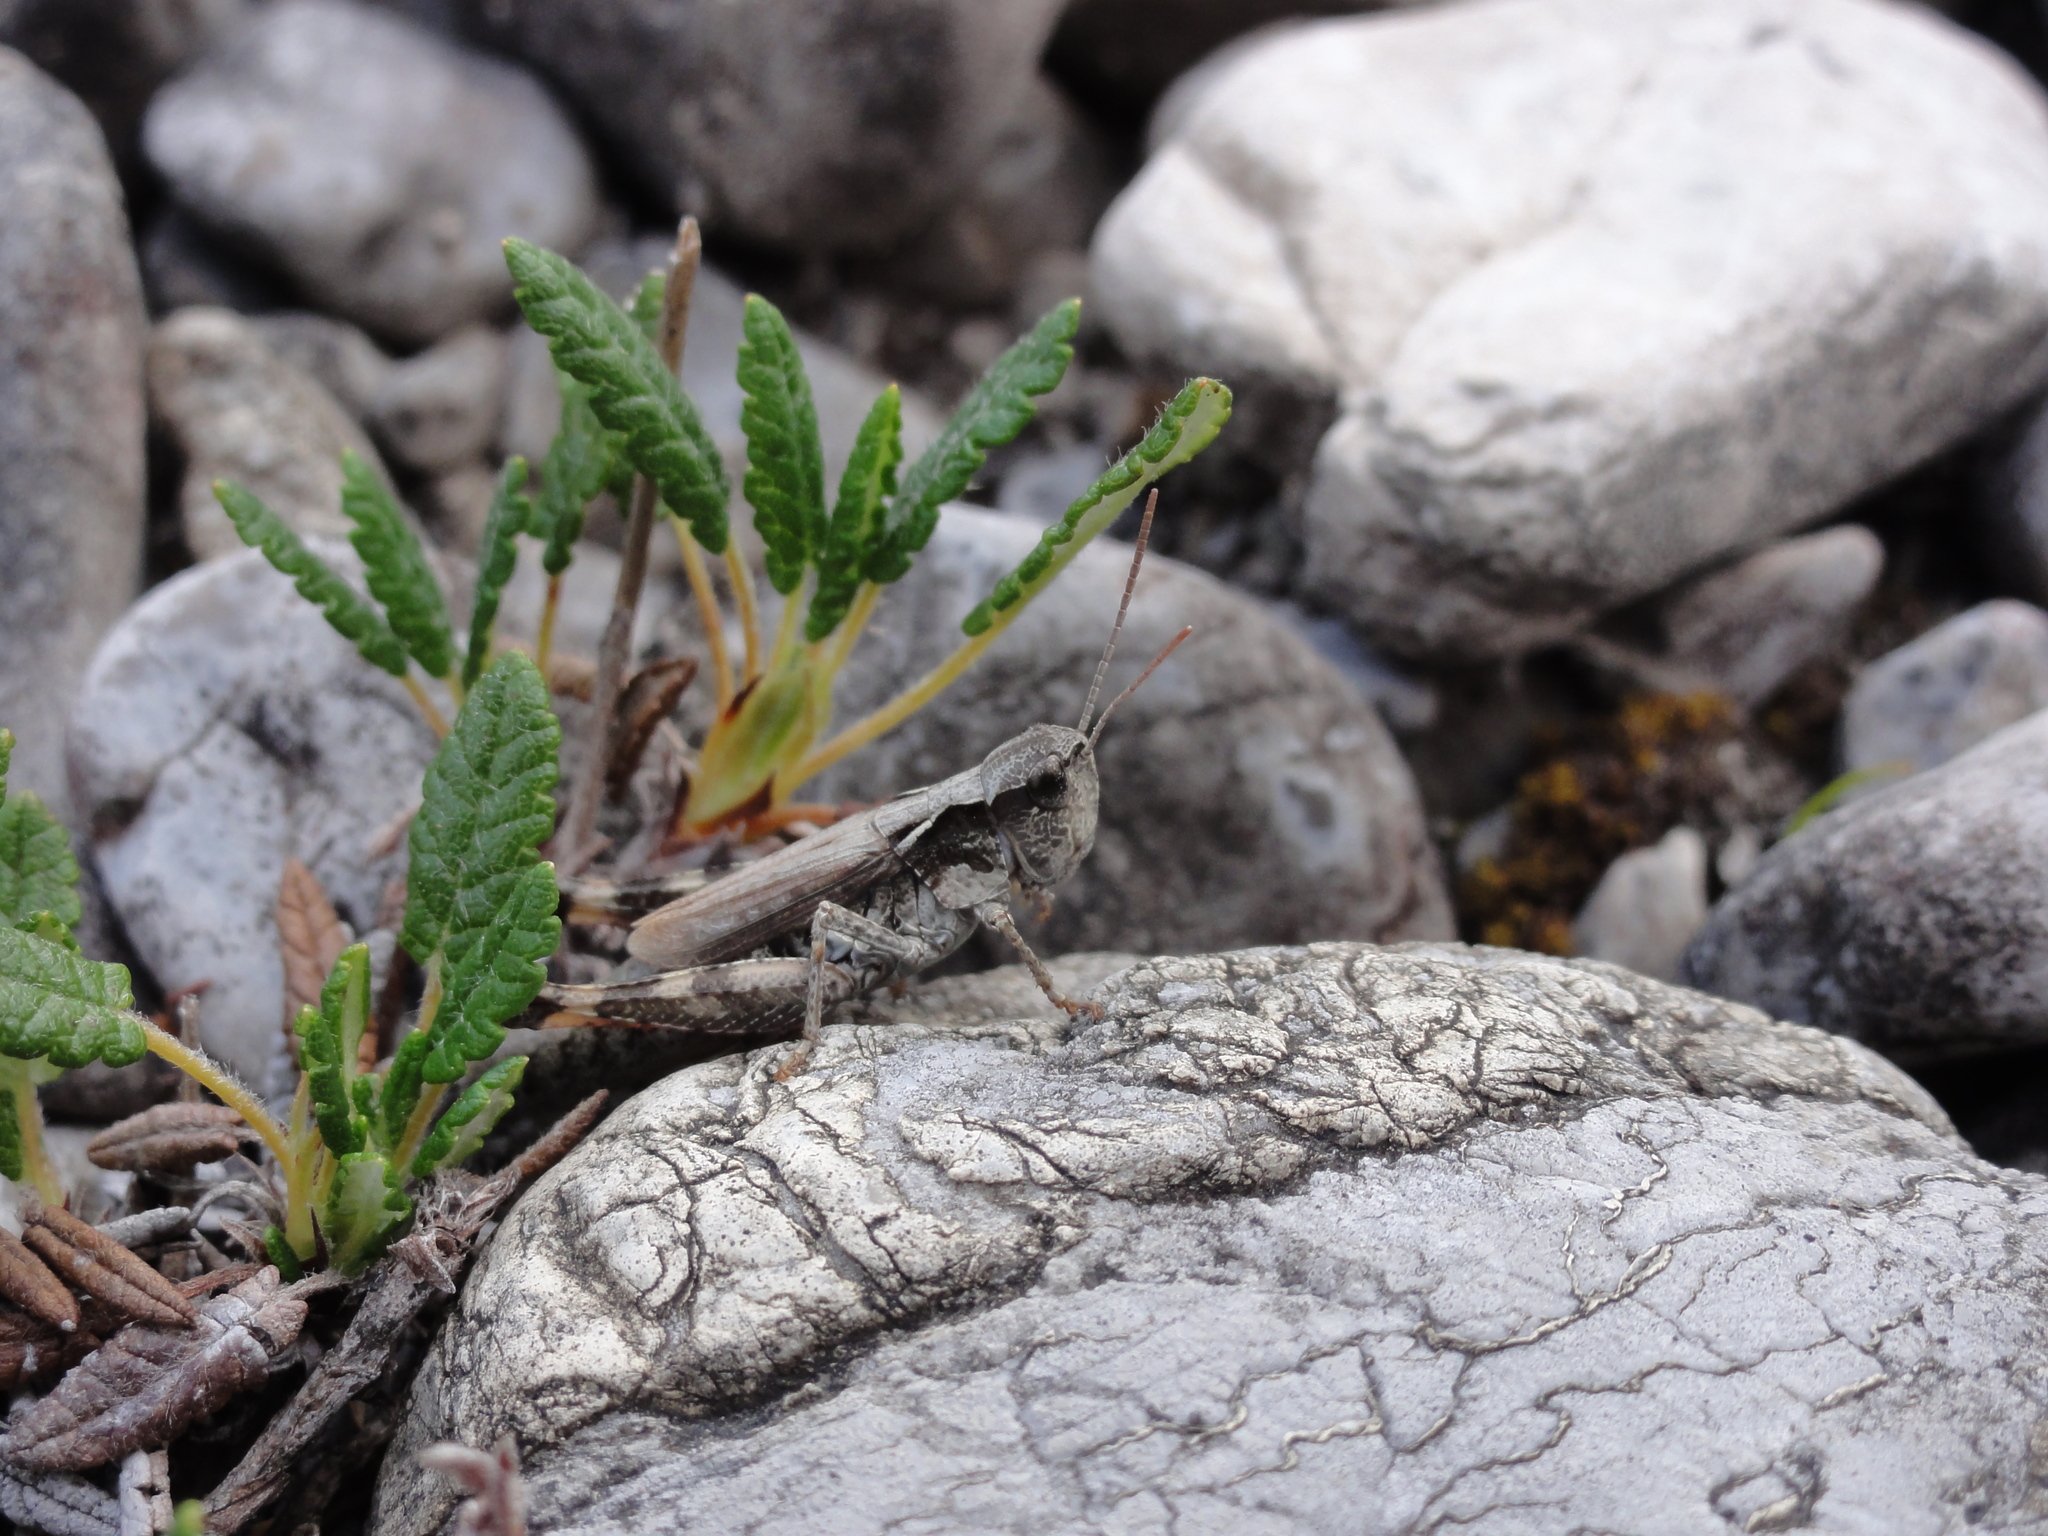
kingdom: Animalia
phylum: Arthropoda
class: Insecta
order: Orthoptera
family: Acrididae
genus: Chorthippus
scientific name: Chorthippus pullus
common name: Gravel grasshopper
